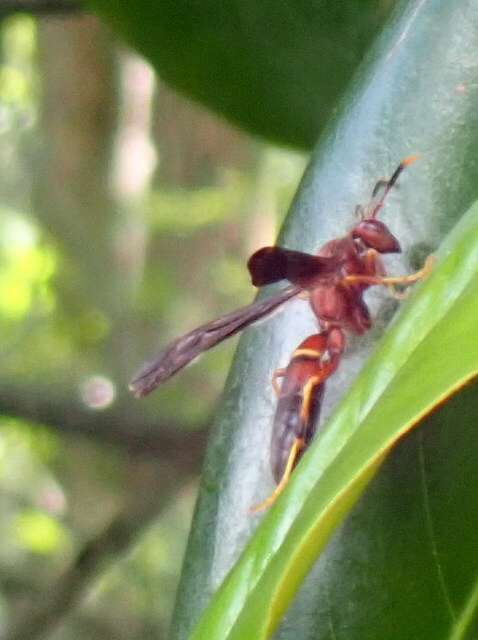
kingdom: Animalia
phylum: Arthropoda
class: Insecta
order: Hymenoptera
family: Eumenidae
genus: Polistes
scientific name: Polistes annularis
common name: Ringed paper wasp
